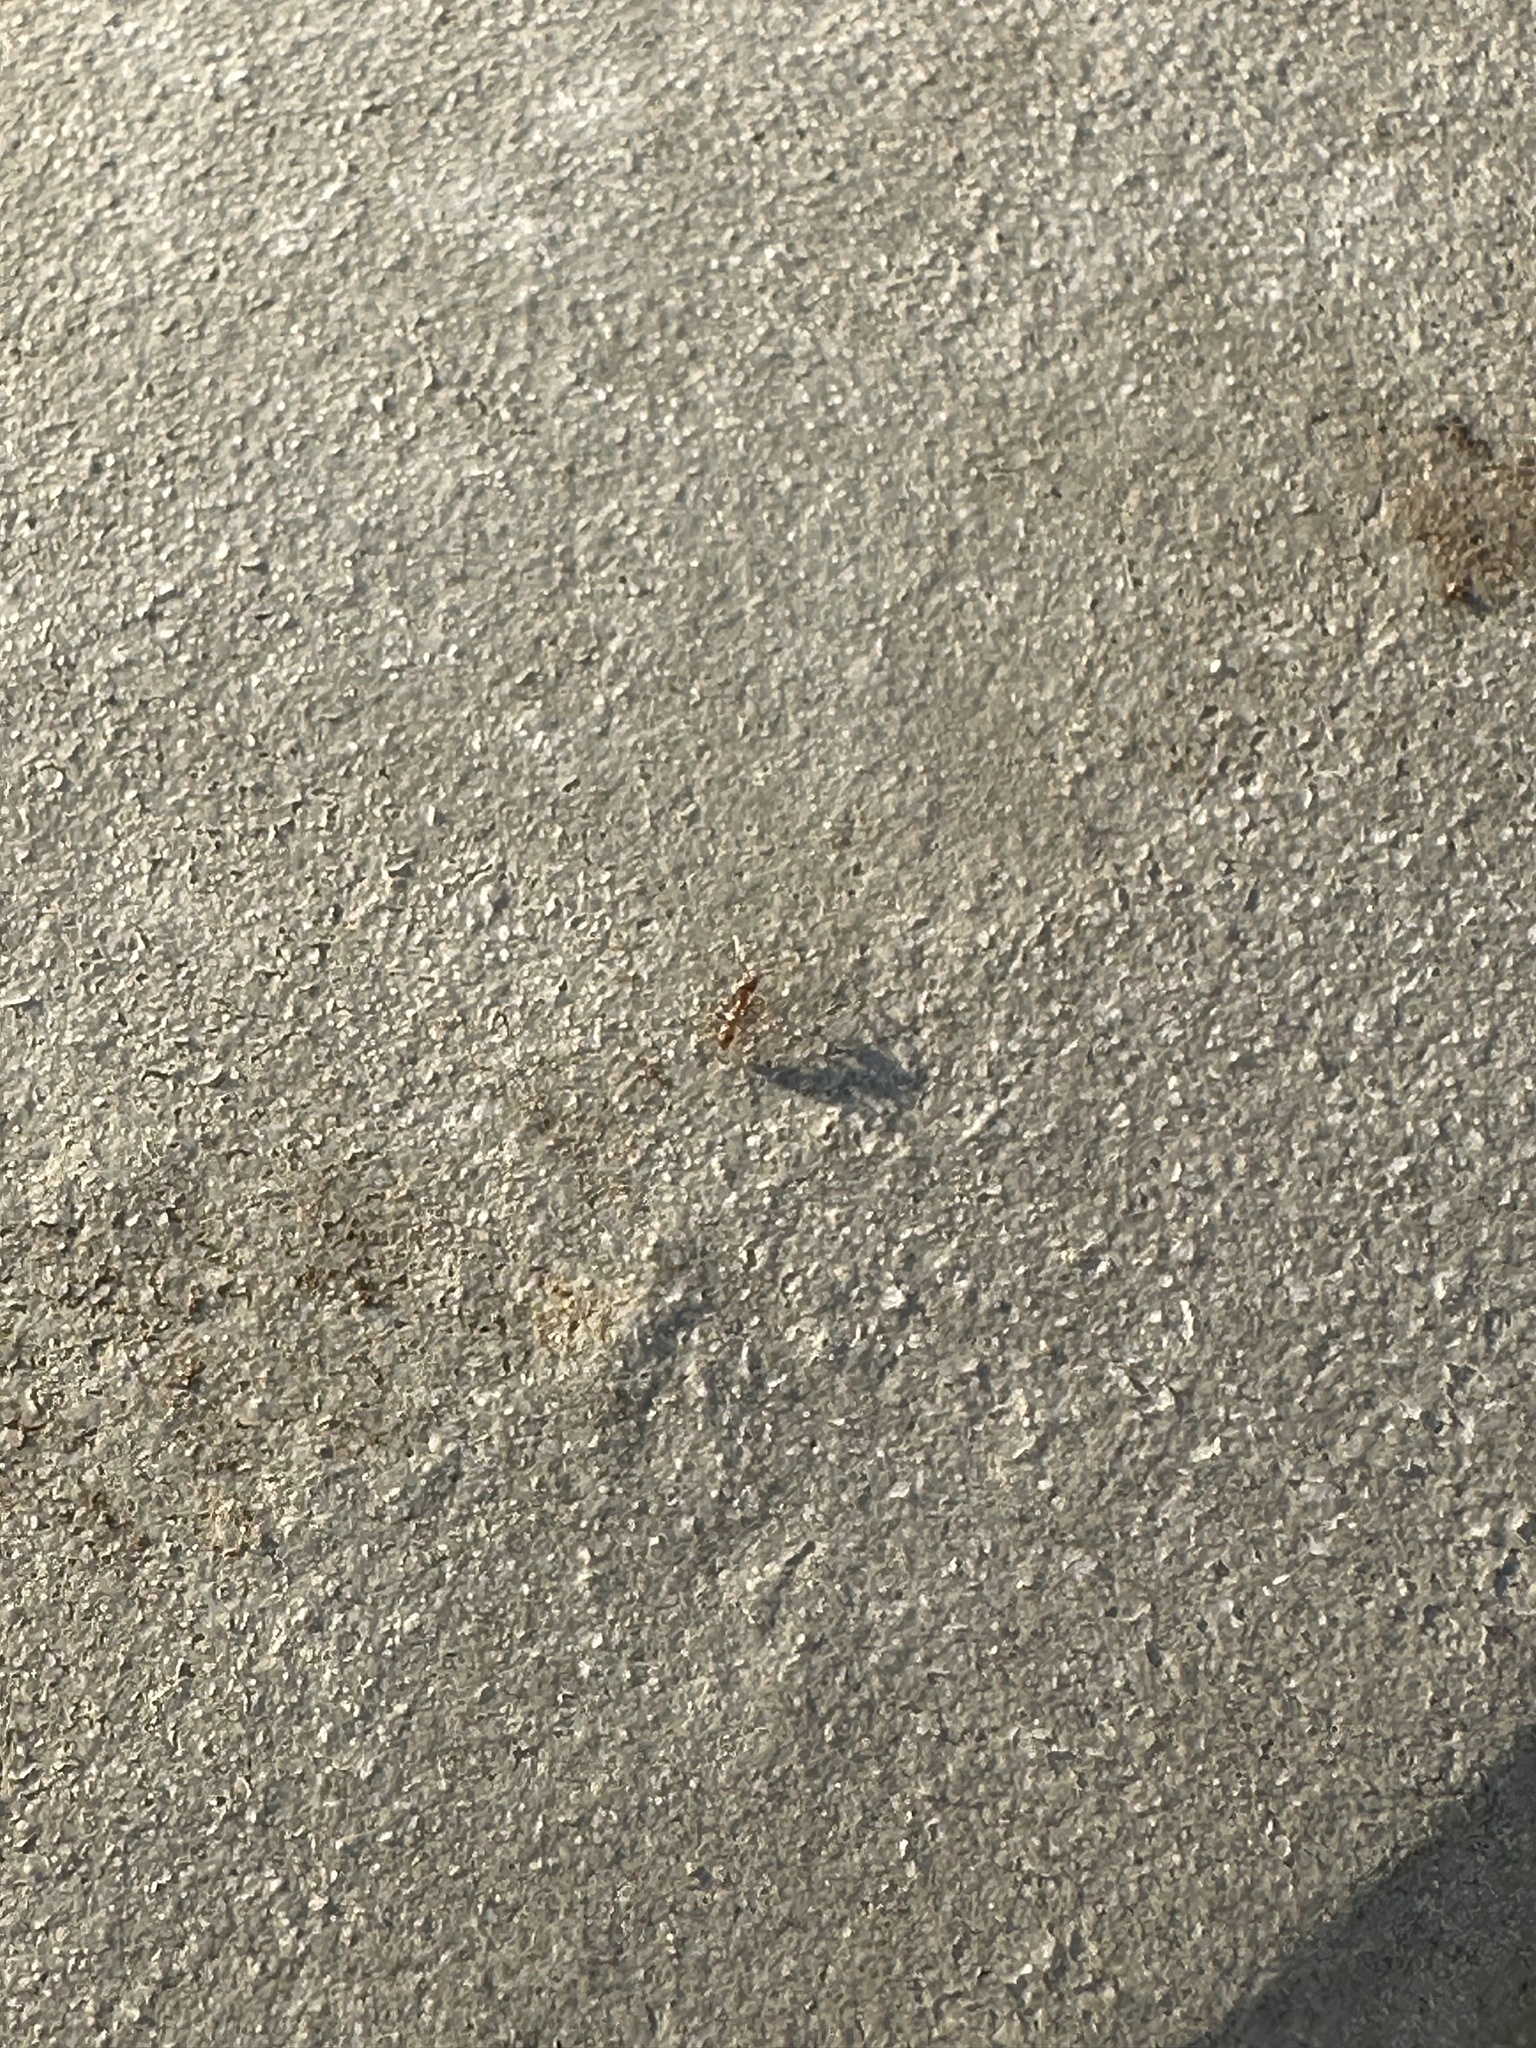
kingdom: Animalia
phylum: Arthropoda
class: Insecta
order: Hymenoptera
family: Formicidae
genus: Linepithema
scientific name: Linepithema humile
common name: Argentine ant
